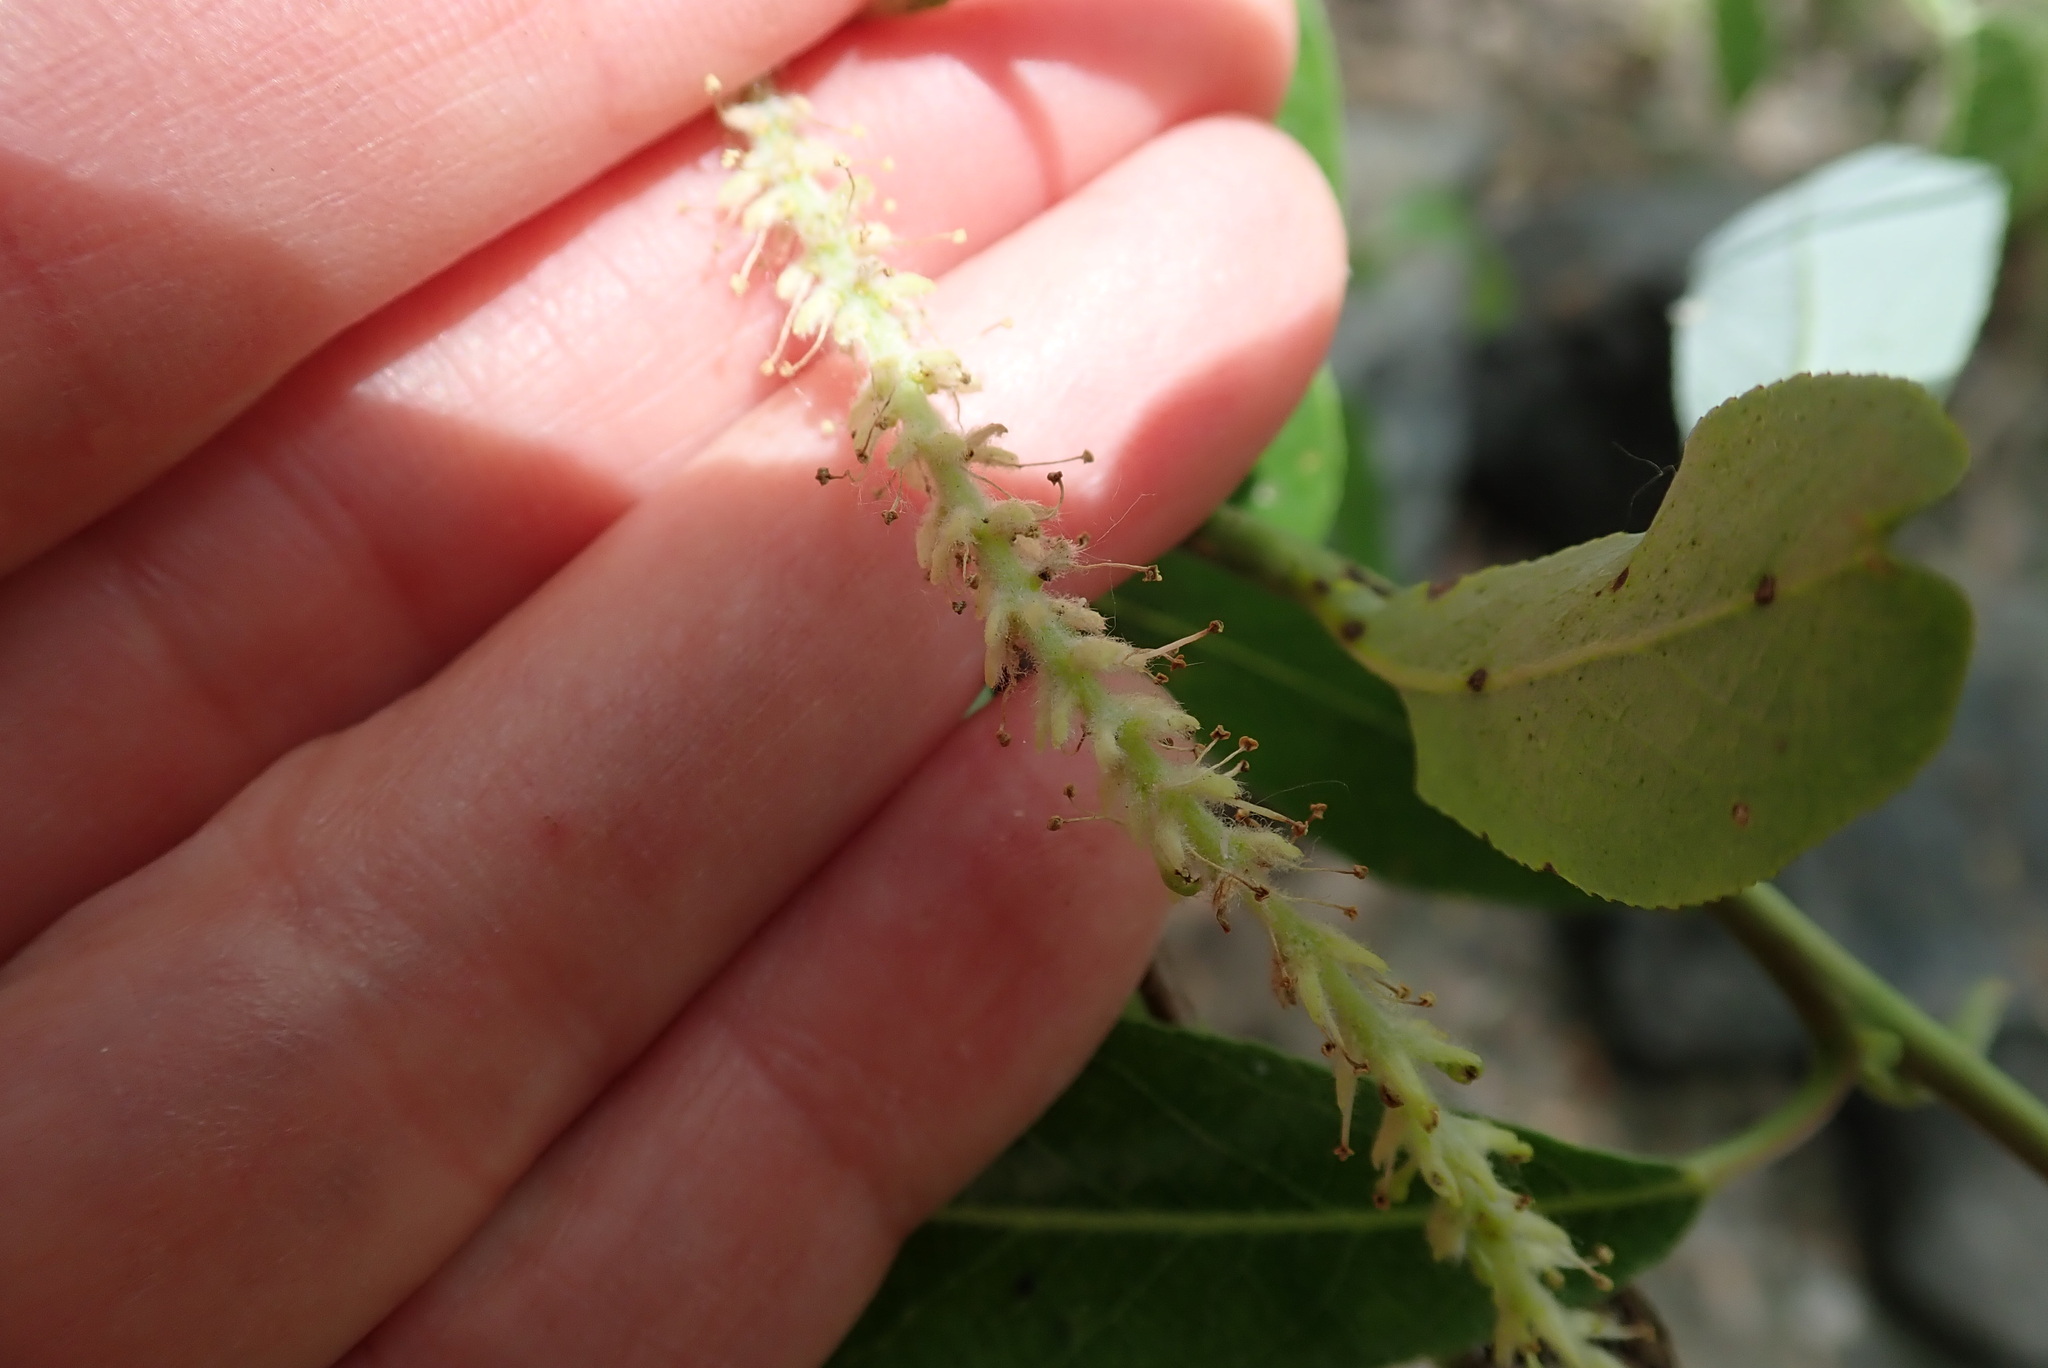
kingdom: Plantae
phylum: Tracheophyta
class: Magnoliopsida
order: Malpighiales
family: Salicaceae
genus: Salix
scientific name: Salix laevigata
